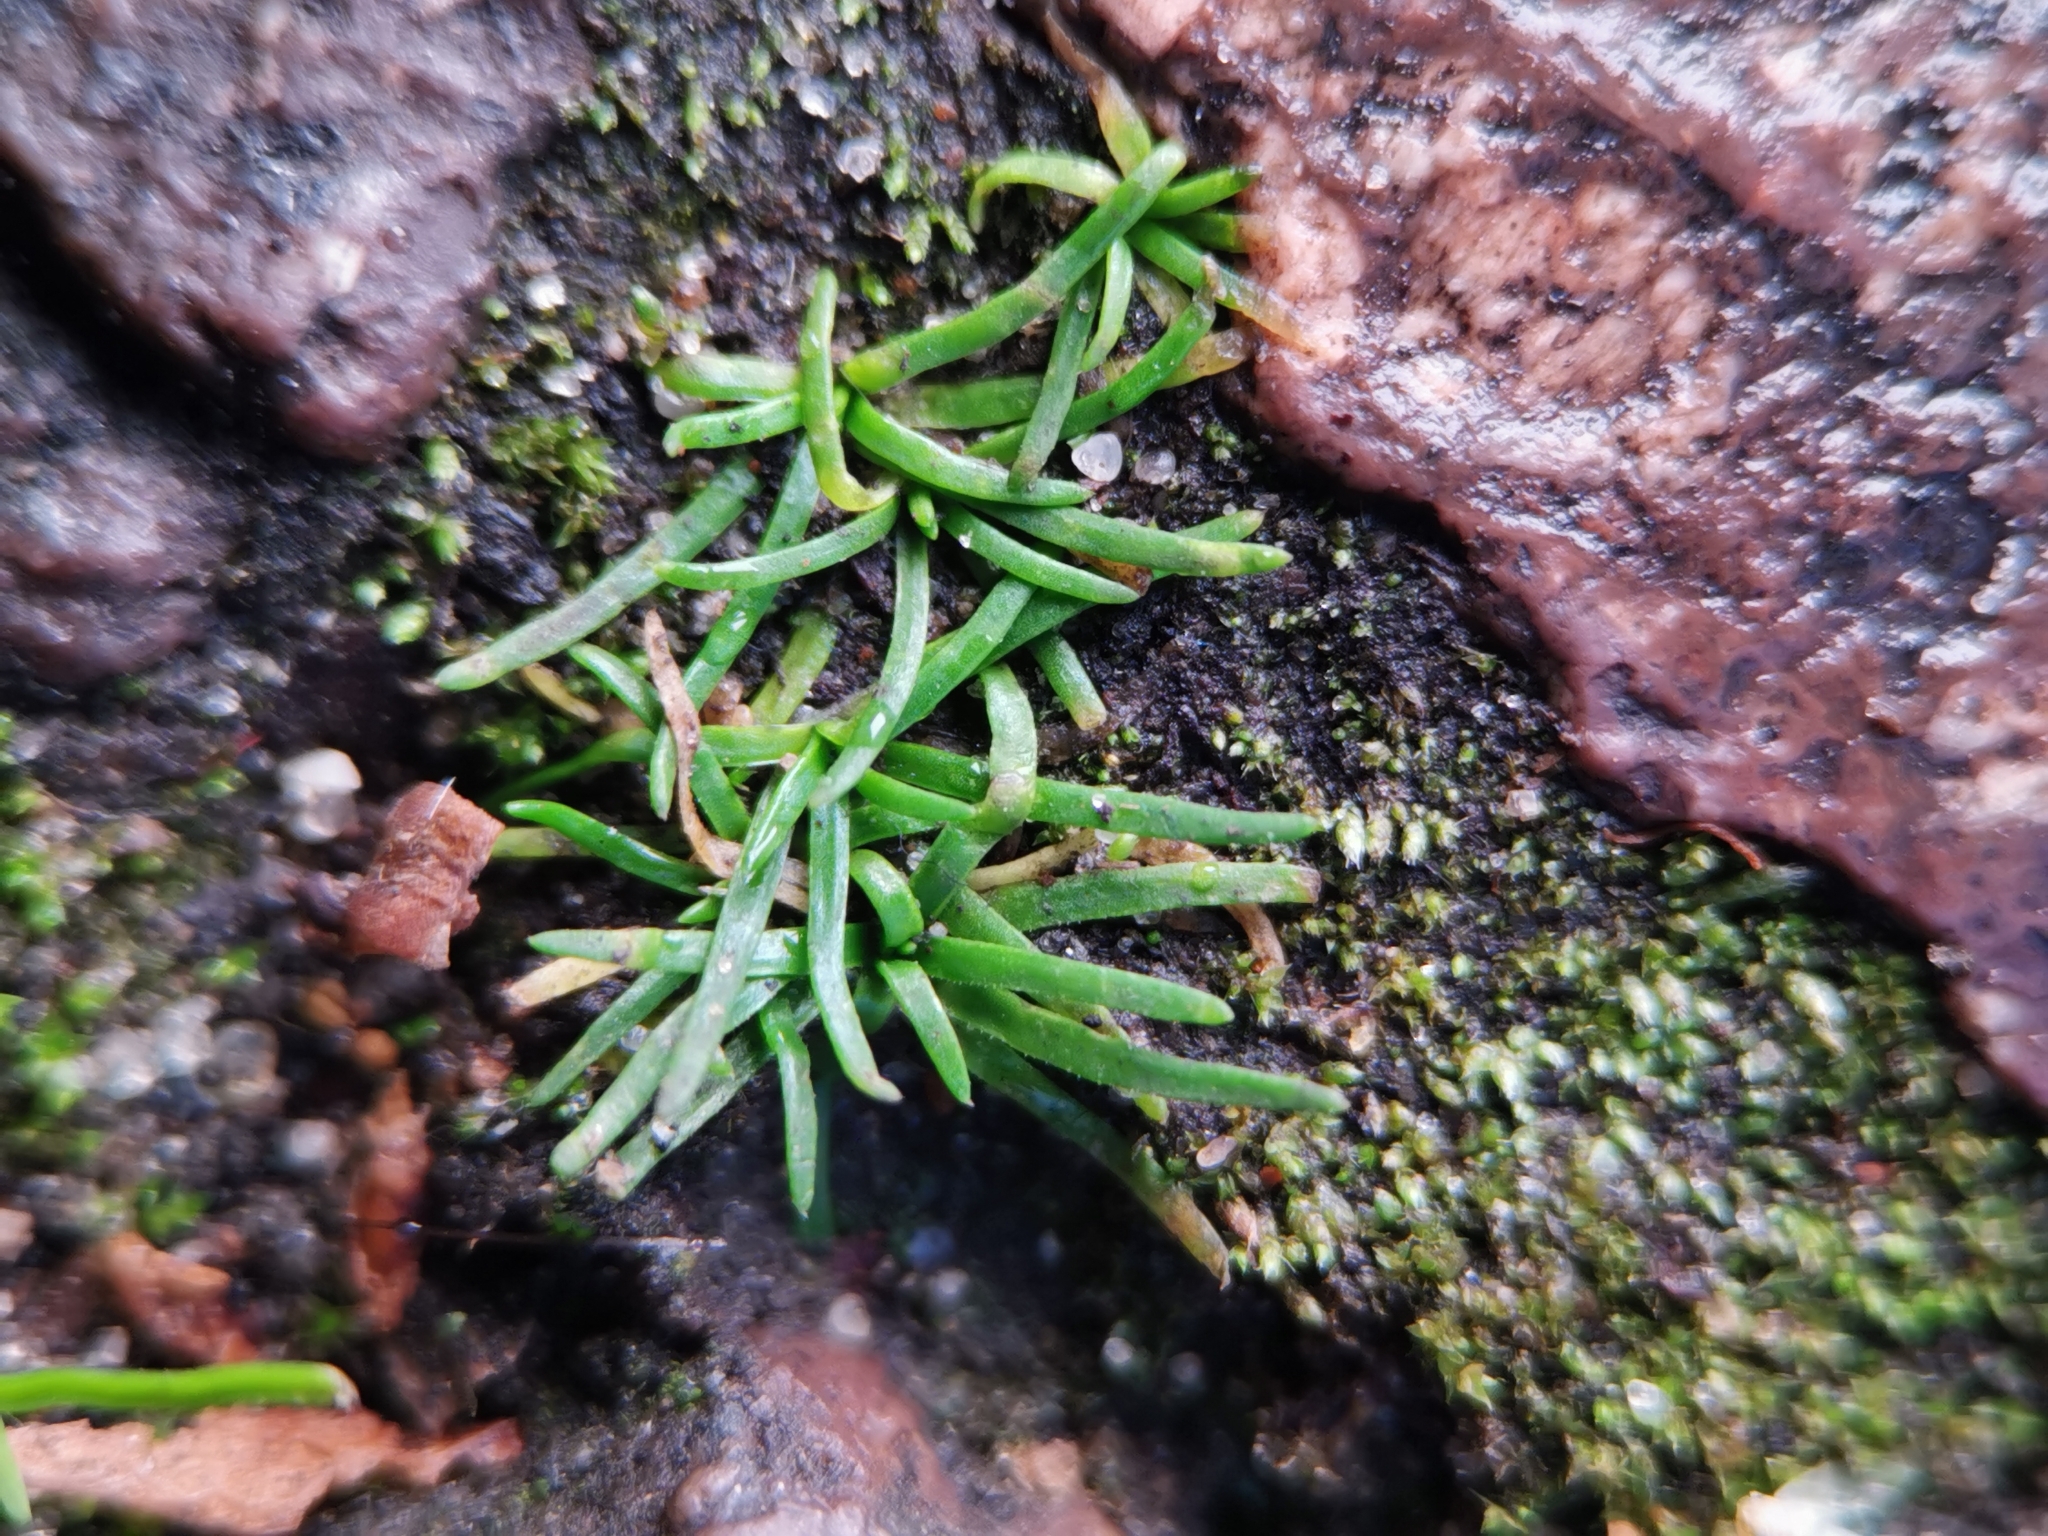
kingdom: Plantae
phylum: Tracheophyta
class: Magnoliopsida
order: Caryophyllales
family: Caryophyllaceae
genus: Sagina
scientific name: Sagina procumbens
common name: Procumbent pearlwort
